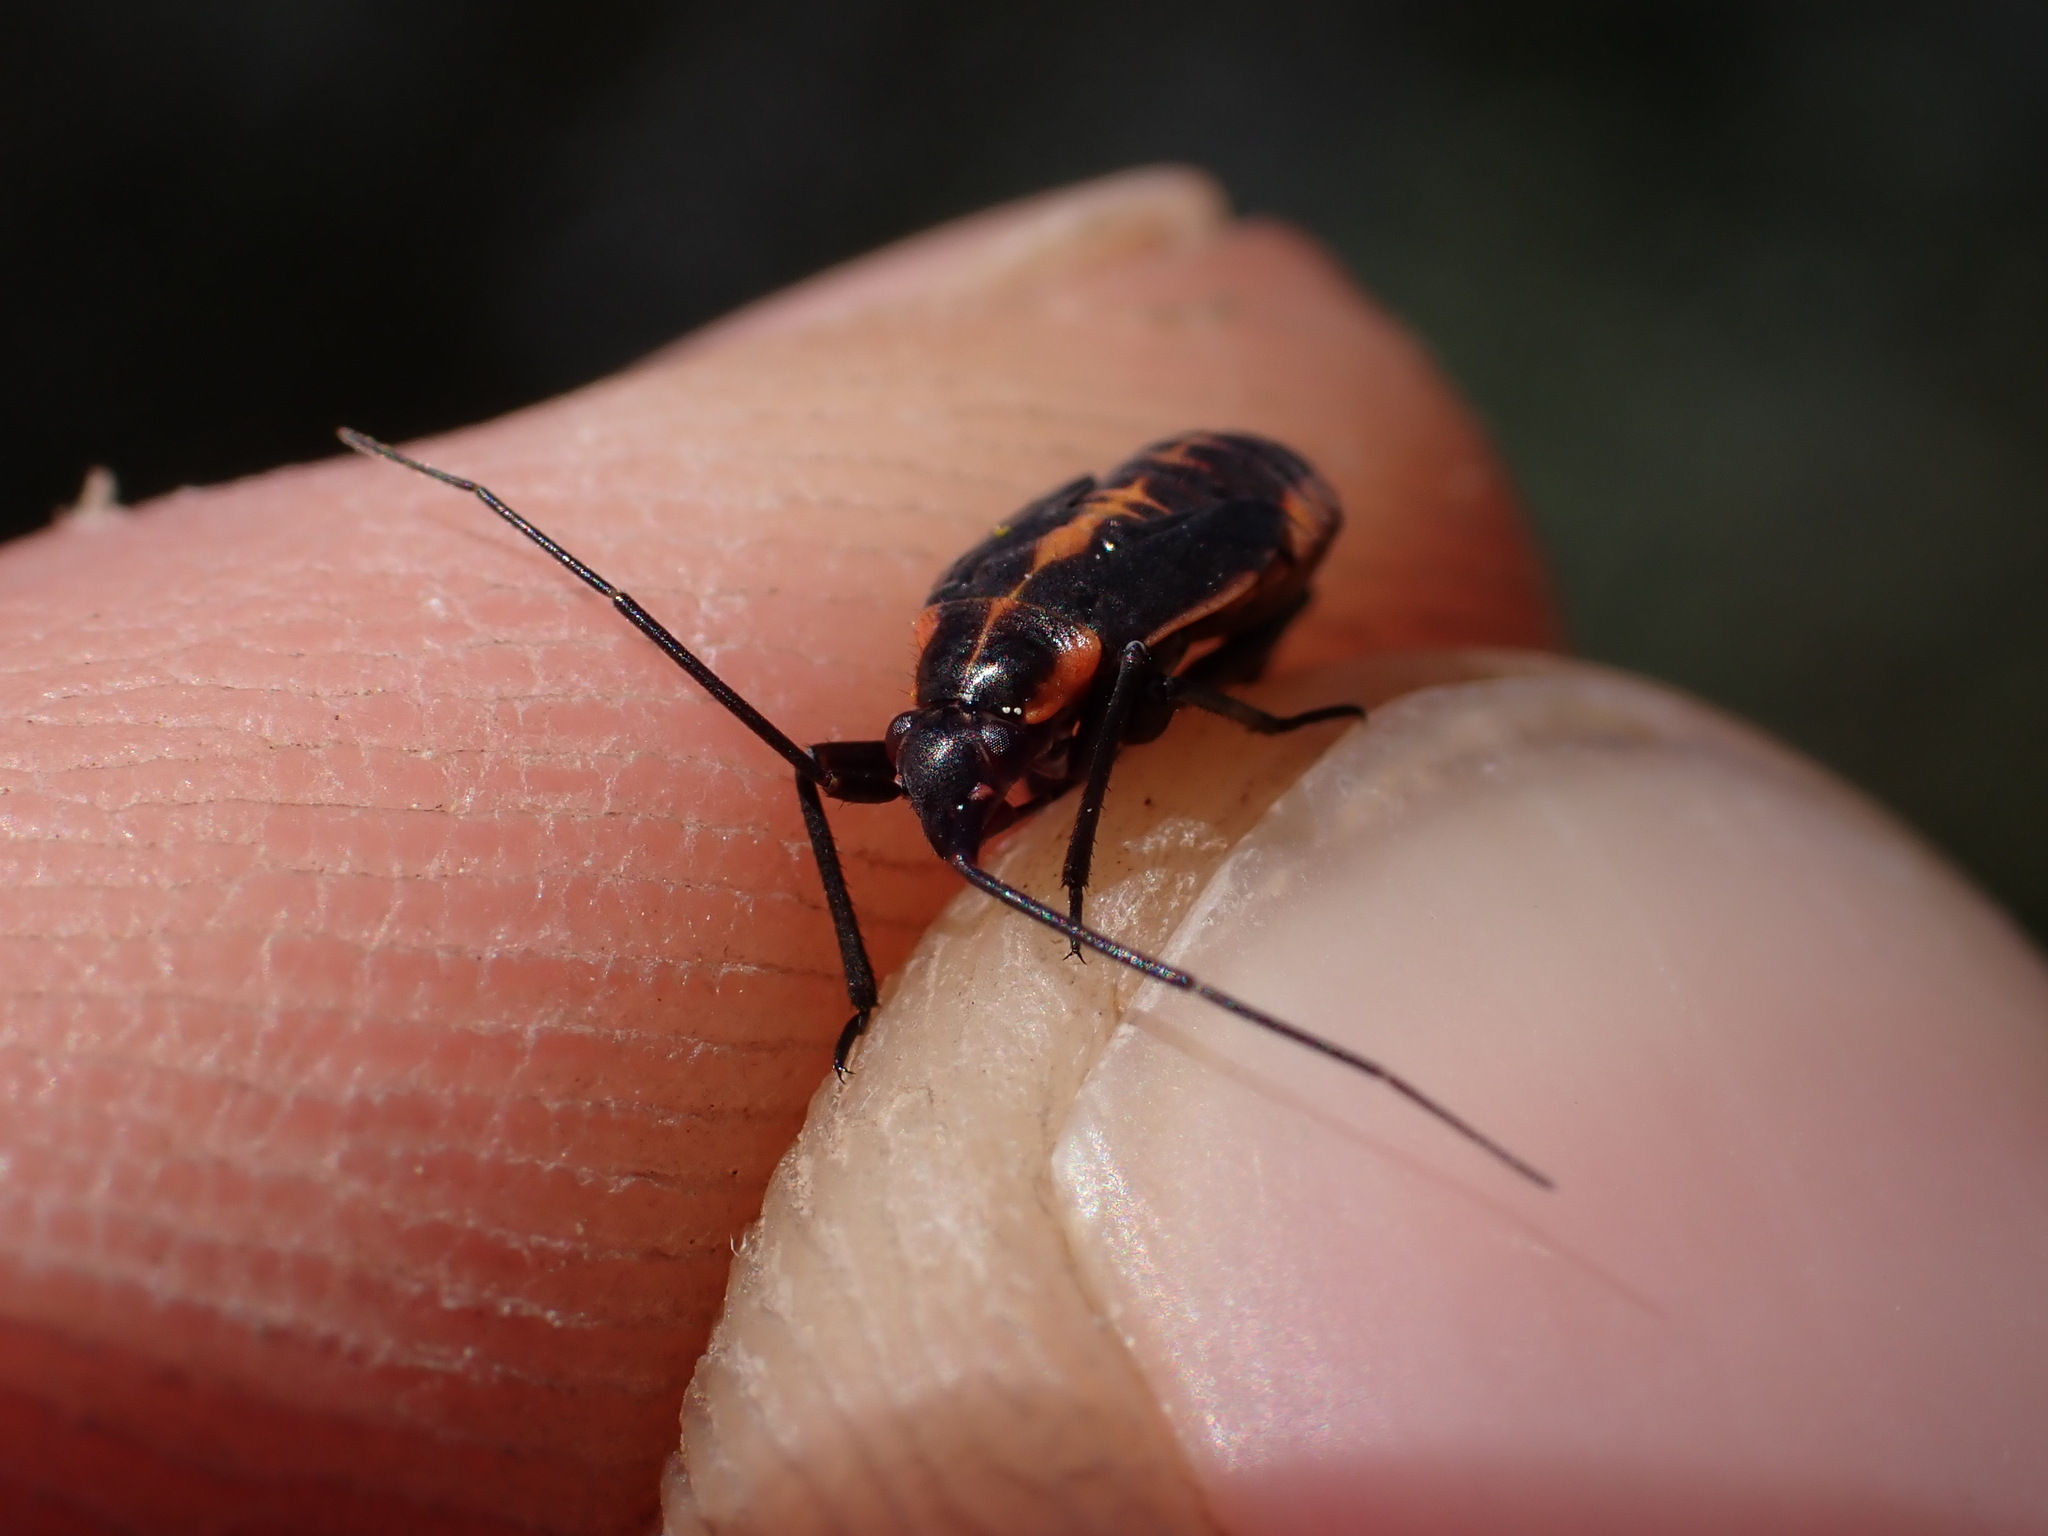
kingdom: Animalia
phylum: Arthropoda
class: Insecta
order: Hemiptera
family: Miridae
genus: Calocoris
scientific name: Calocoris nemoralis
